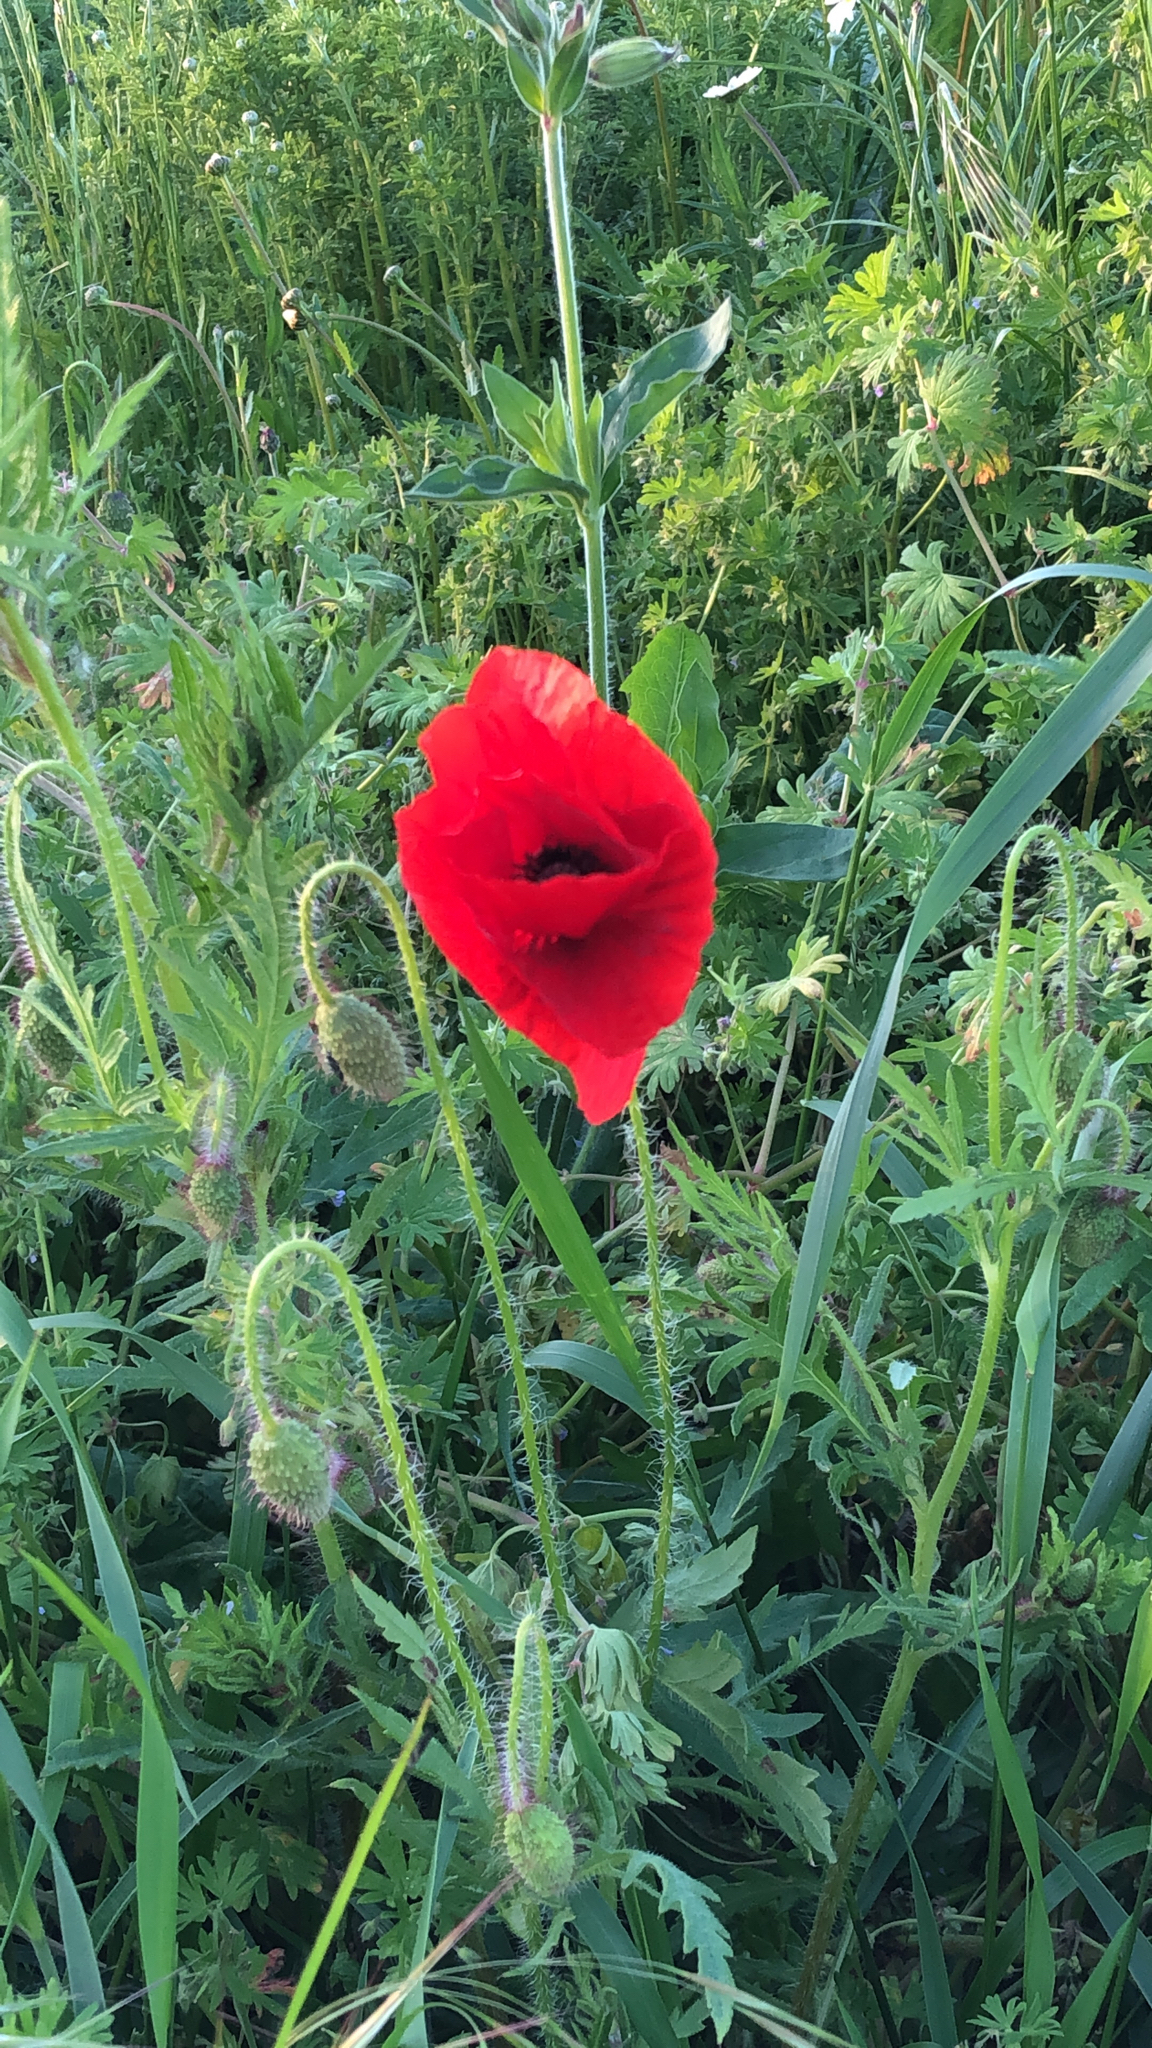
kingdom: Plantae
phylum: Tracheophyta
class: Magnoliopsida
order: Ranunculales
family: Papaveraceae
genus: Papaver
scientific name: Papaver rhoeas
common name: Corn poppy
